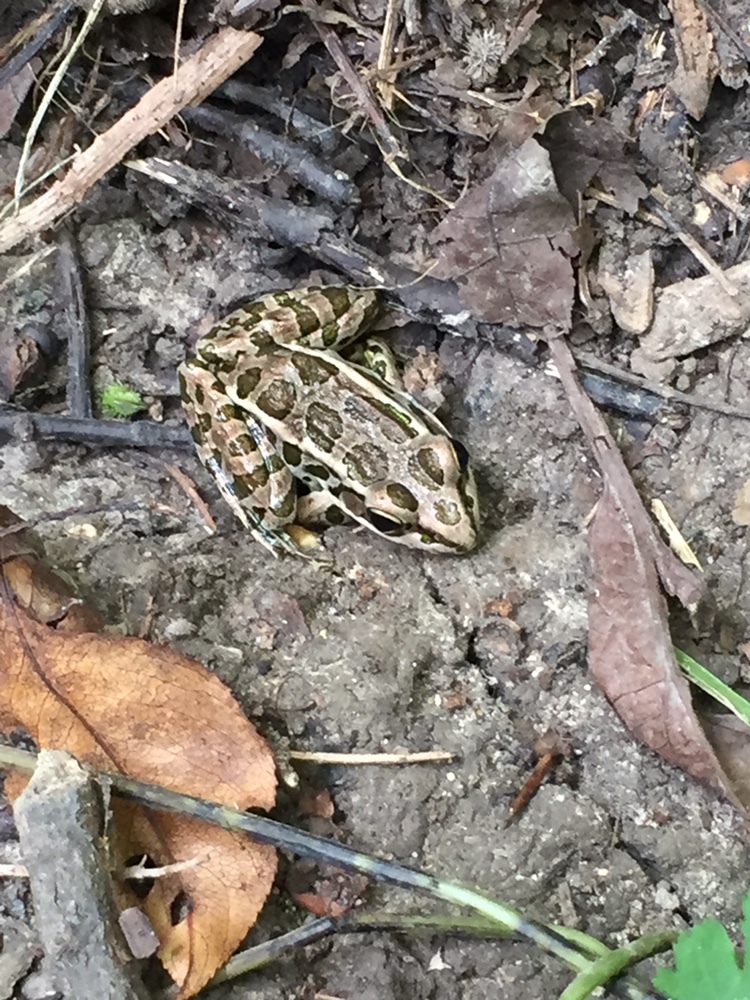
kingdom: Animalia
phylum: Chordata
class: Amphibia
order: Anura
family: Ranidae
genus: Lithobates
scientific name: Lithobates palustris
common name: Pickerel frog
